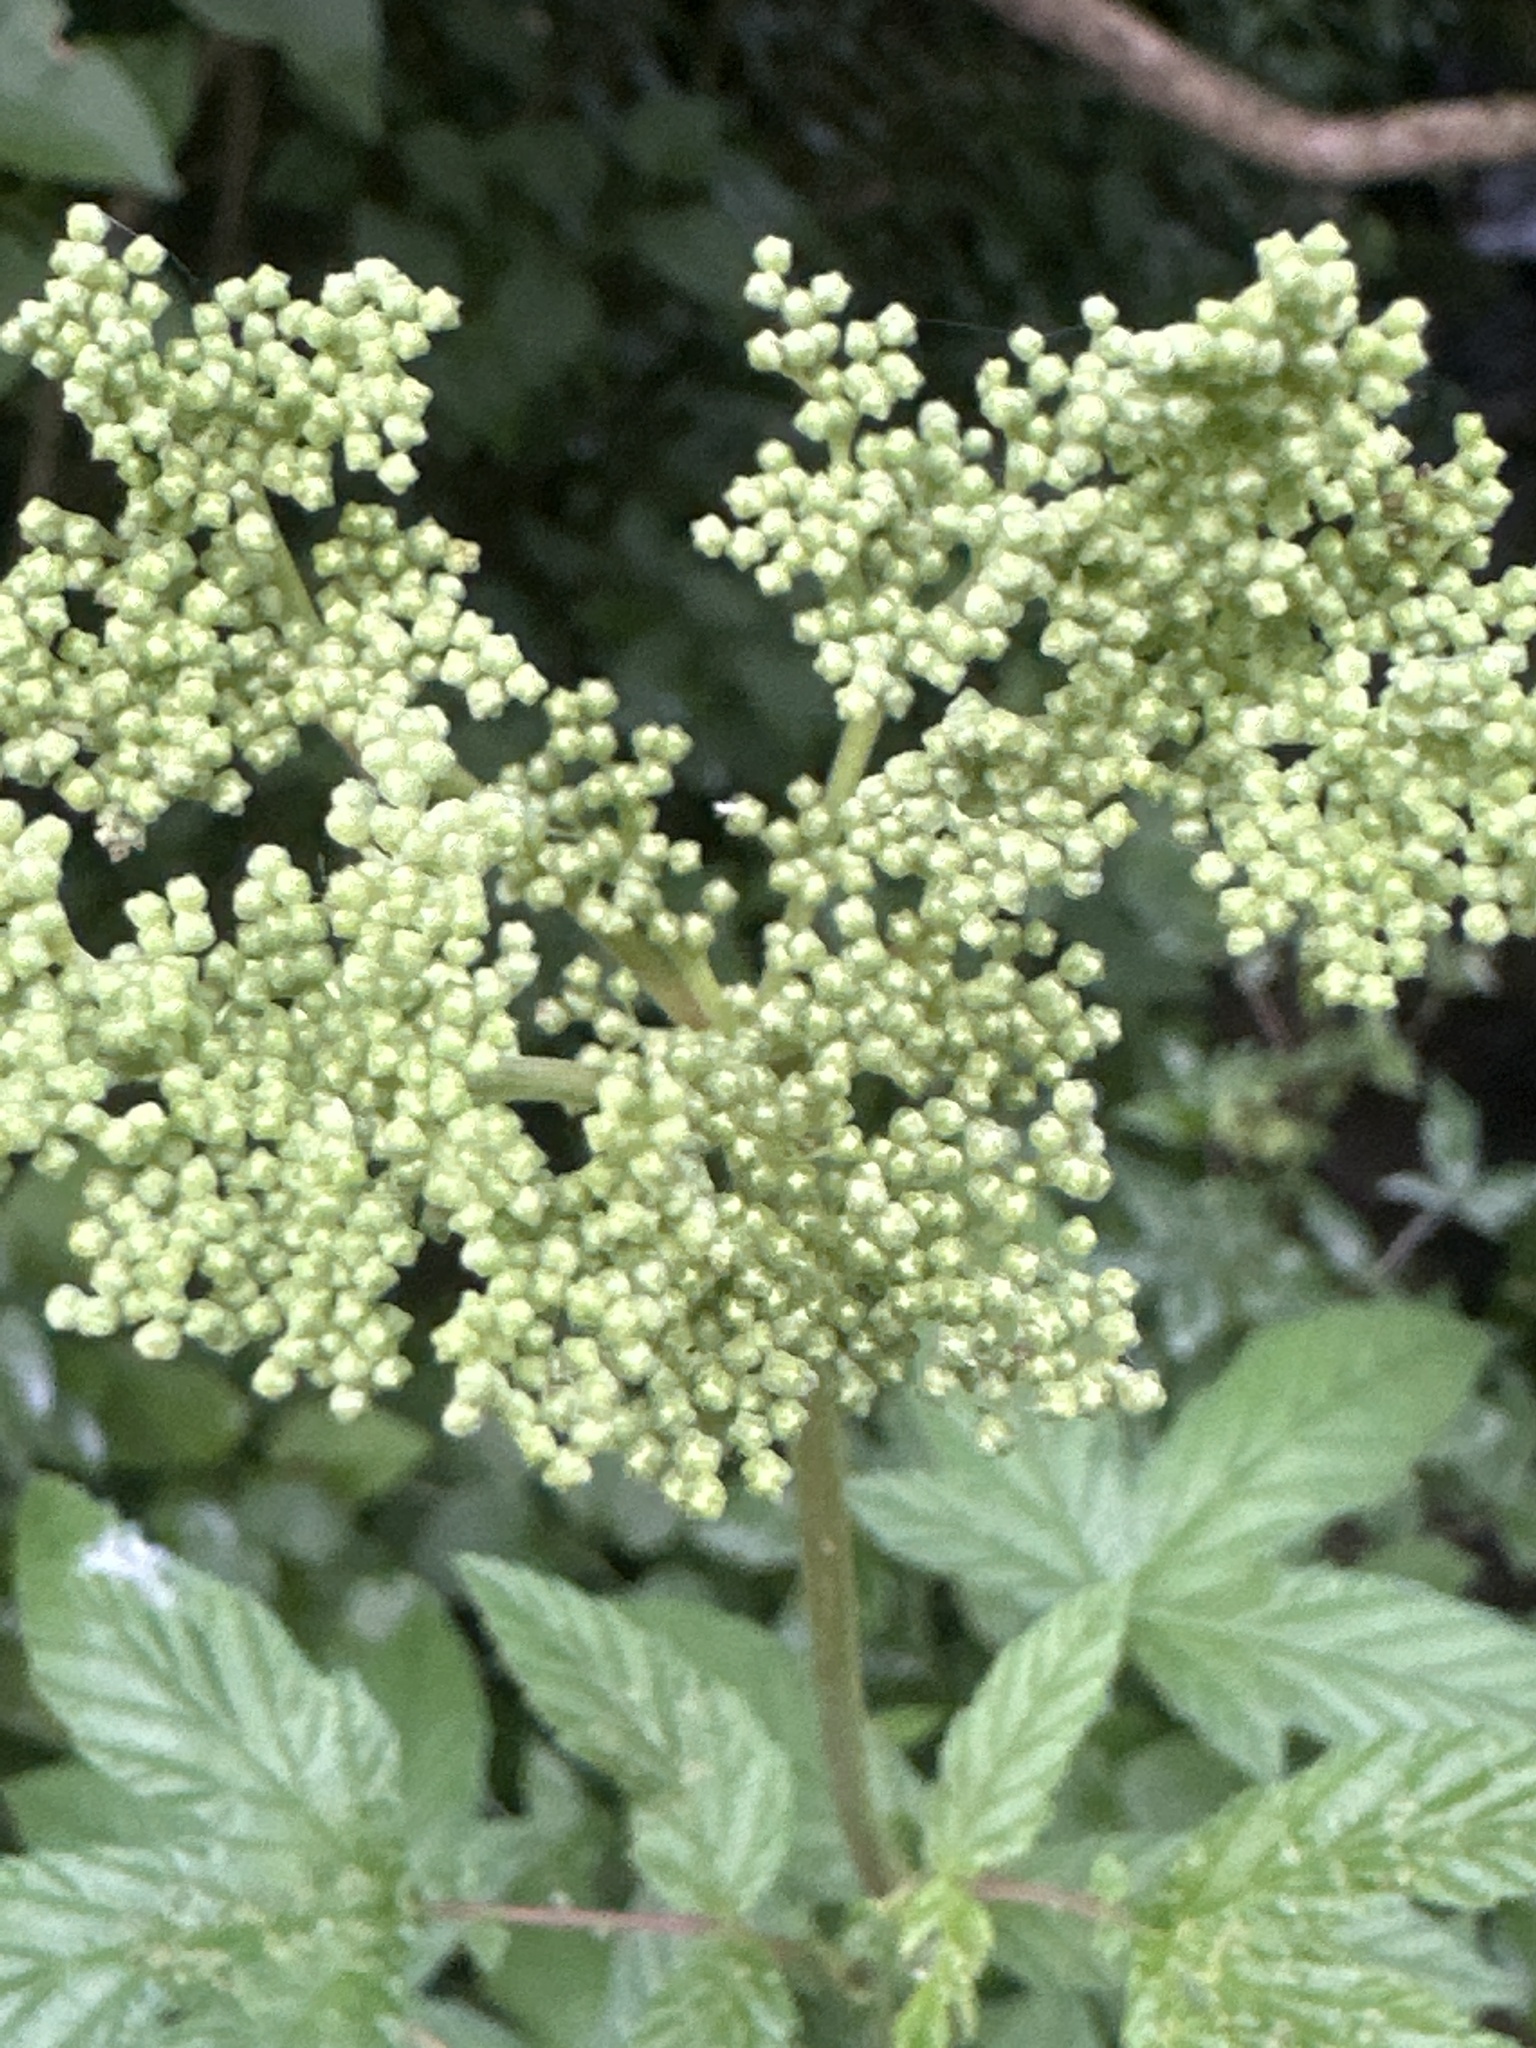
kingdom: Plantae
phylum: Tracheophyta
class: Magnoliopsida
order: Rosales
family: Rosaceae
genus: Filipendula
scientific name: Filipendula ulmaria
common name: Meadowsweet
